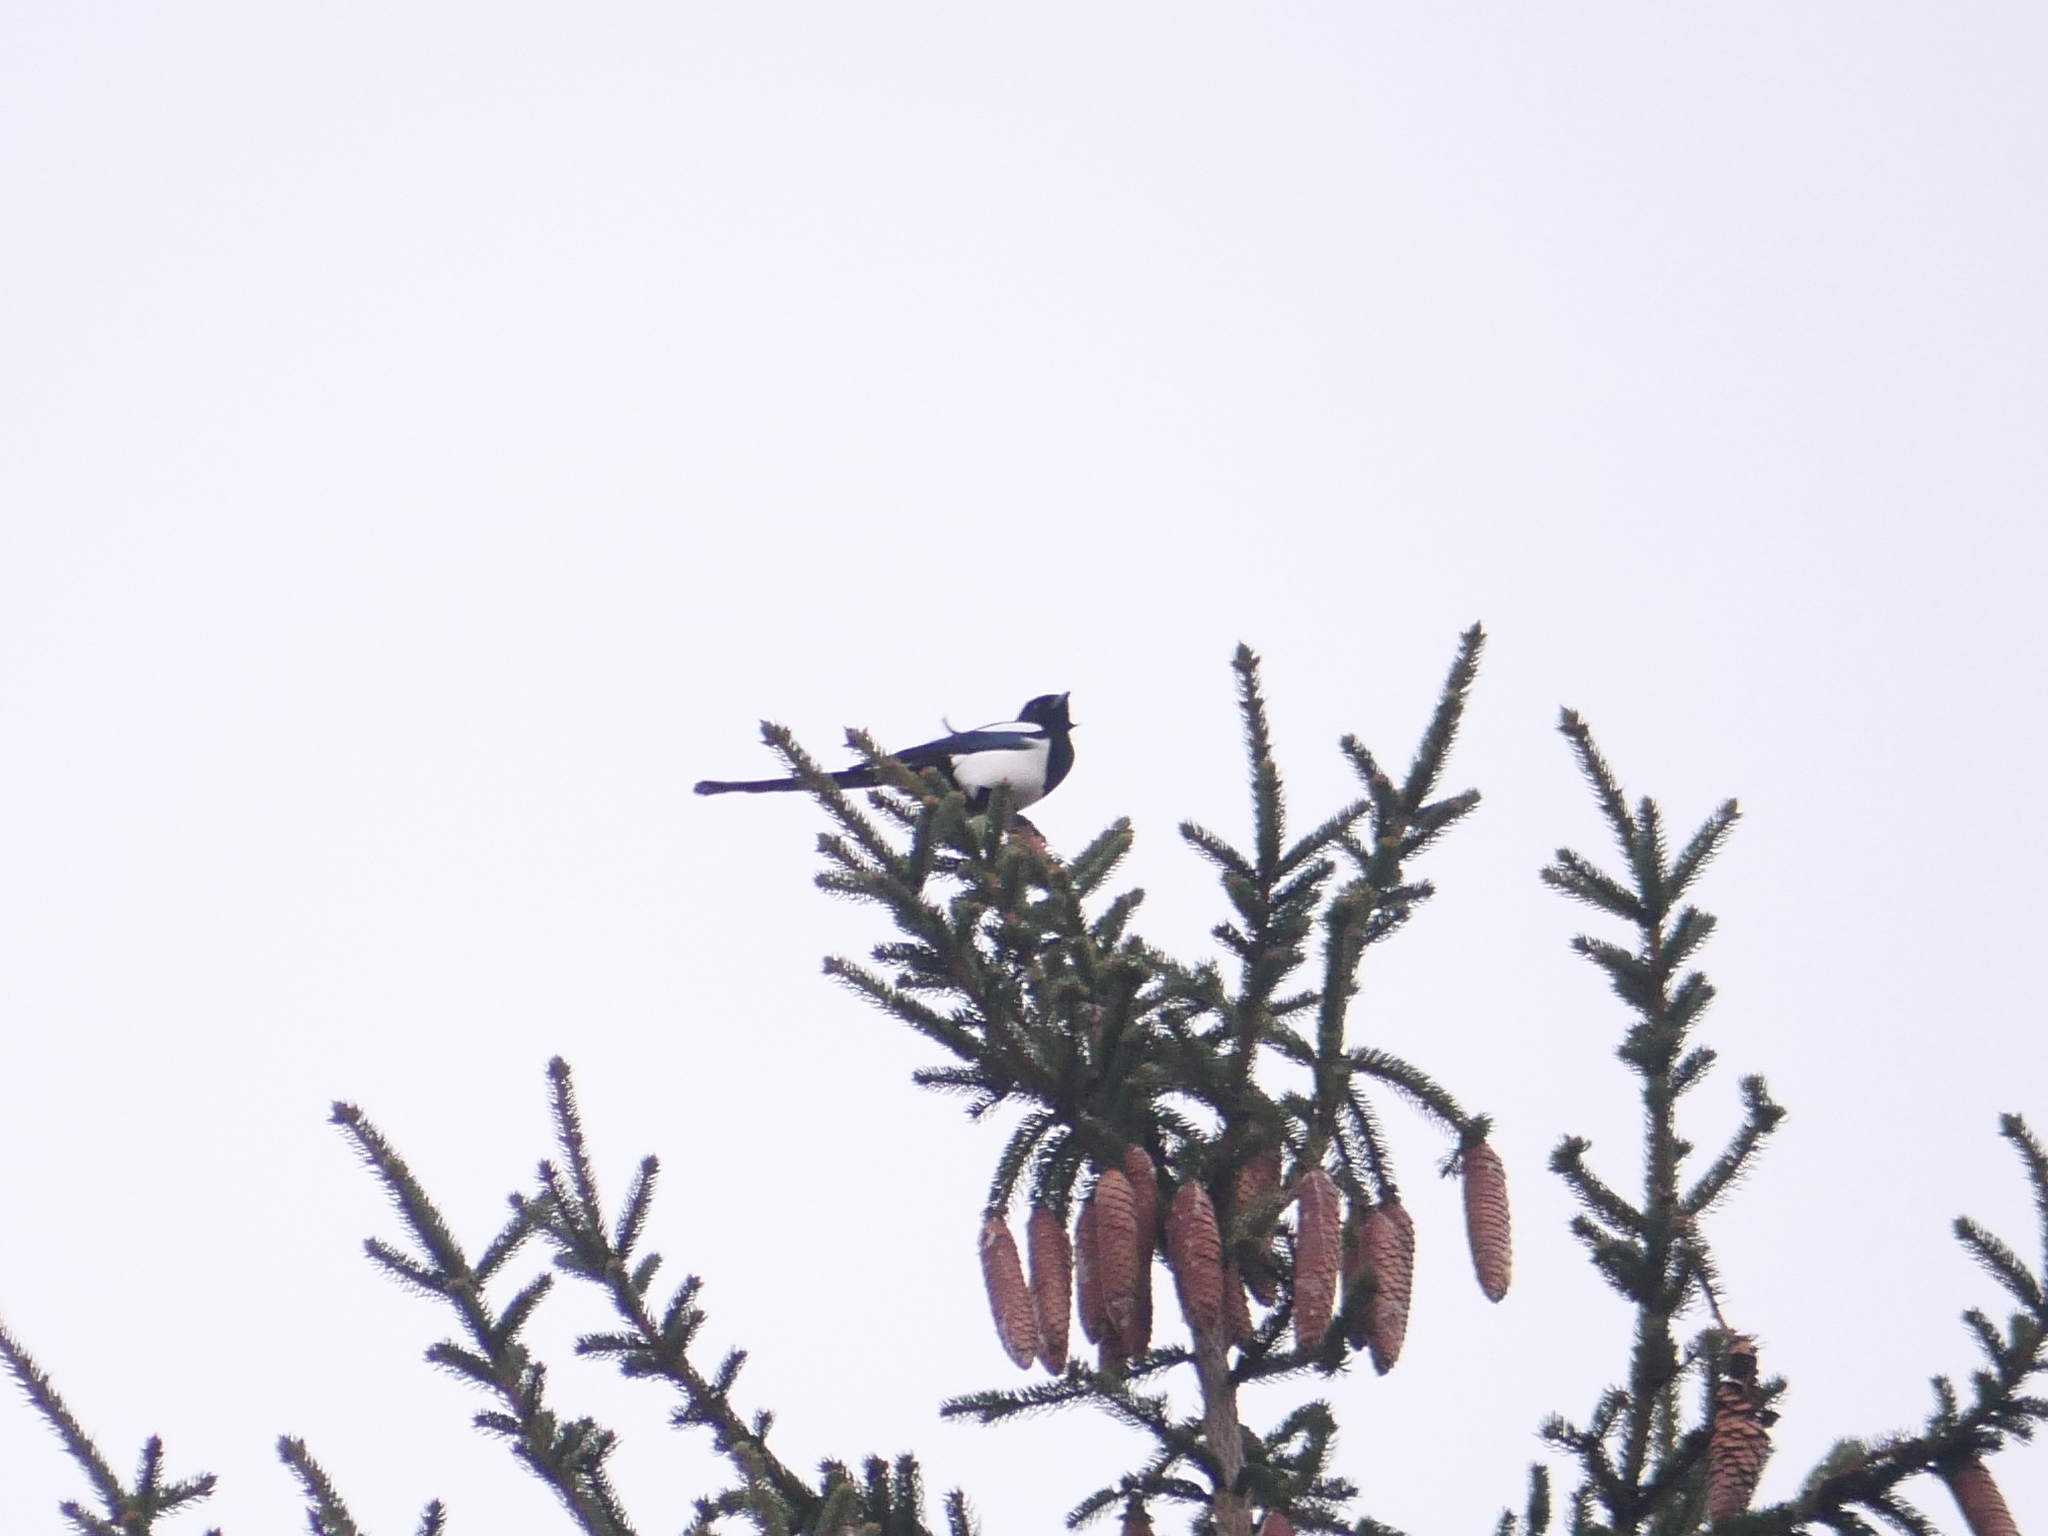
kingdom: Animalia
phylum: Chordata
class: Aves
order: Passeriformes
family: Corvidae
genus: Pica
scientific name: Pica pica
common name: Eurasian magpie
